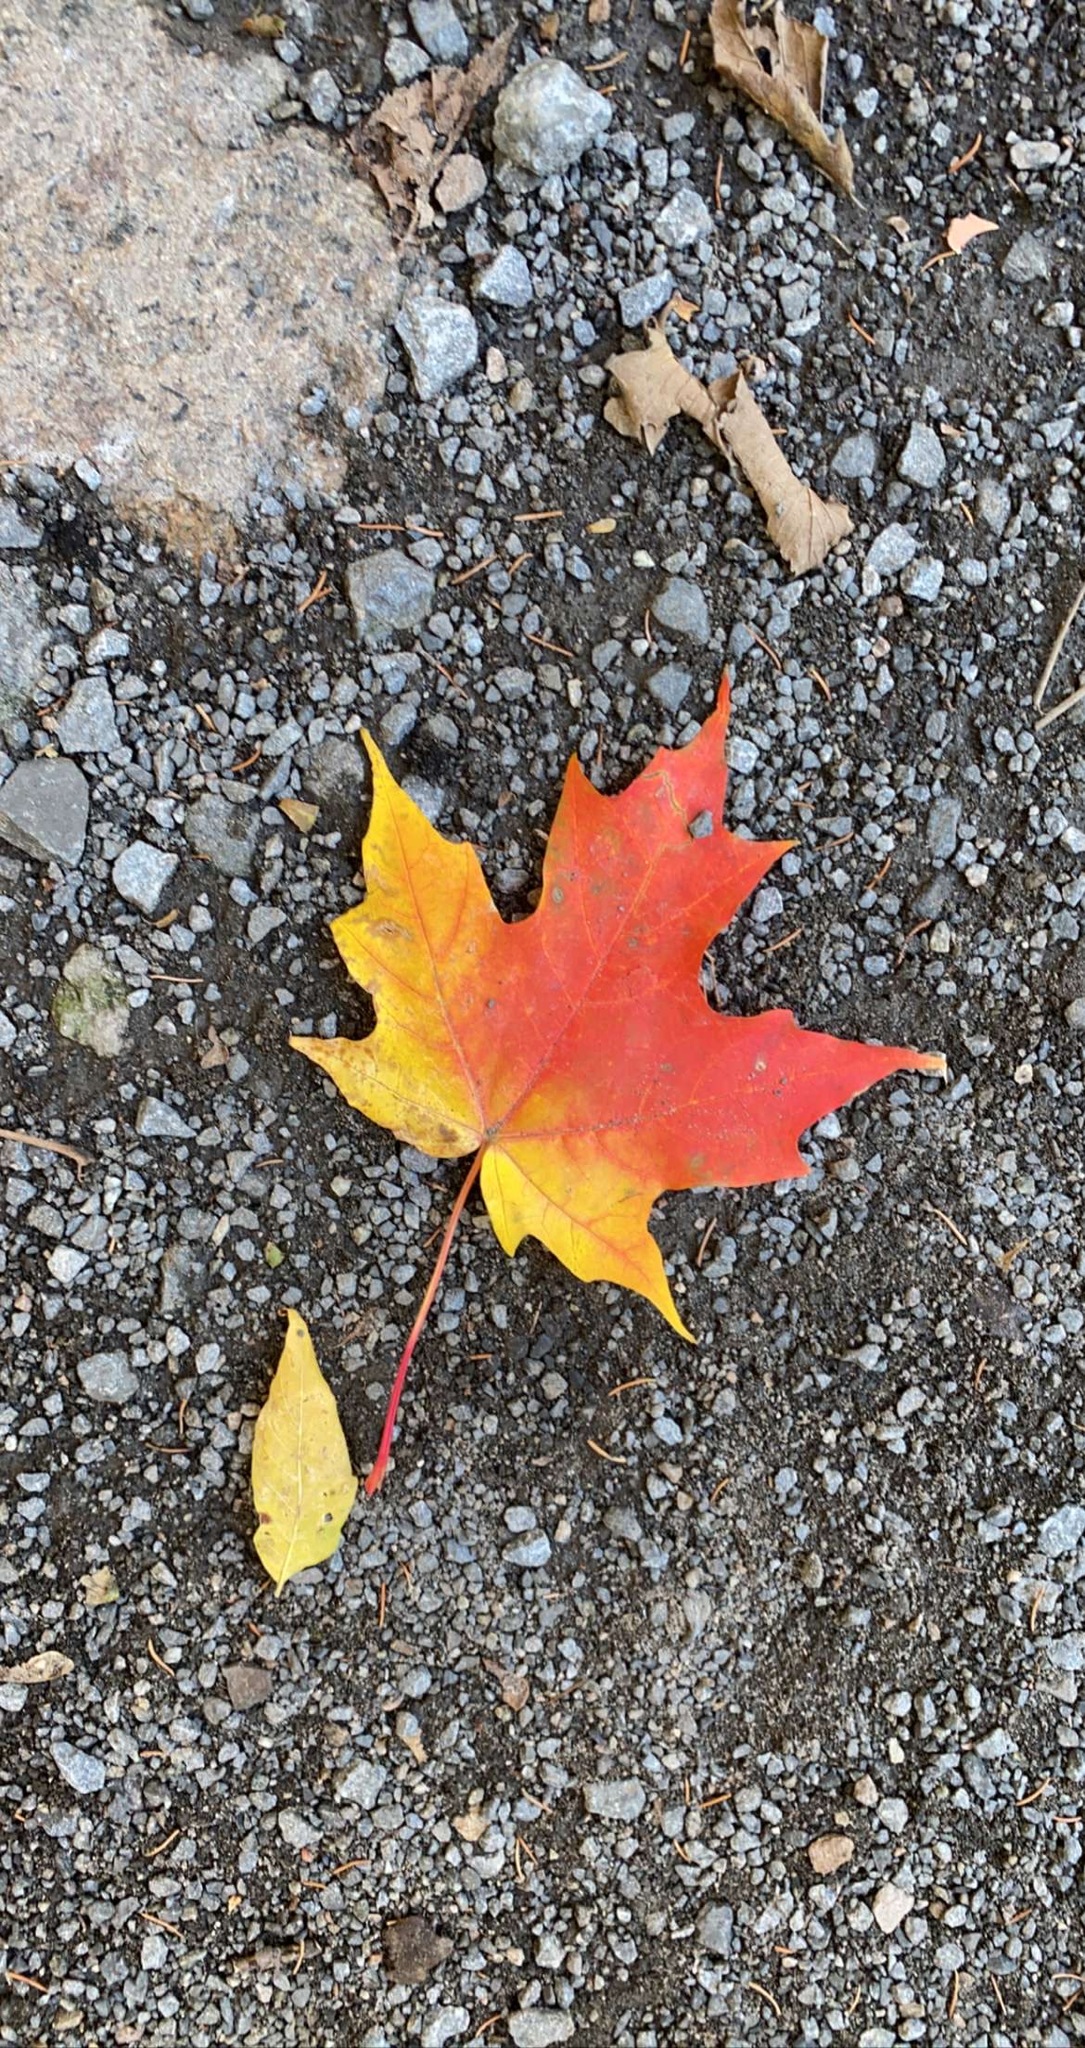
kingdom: Plantae
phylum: Tracheophyta
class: Magnoliopsida
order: Sapindales
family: Sapindaceae
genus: Acer
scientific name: Acer saccharum
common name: Sugar maple
